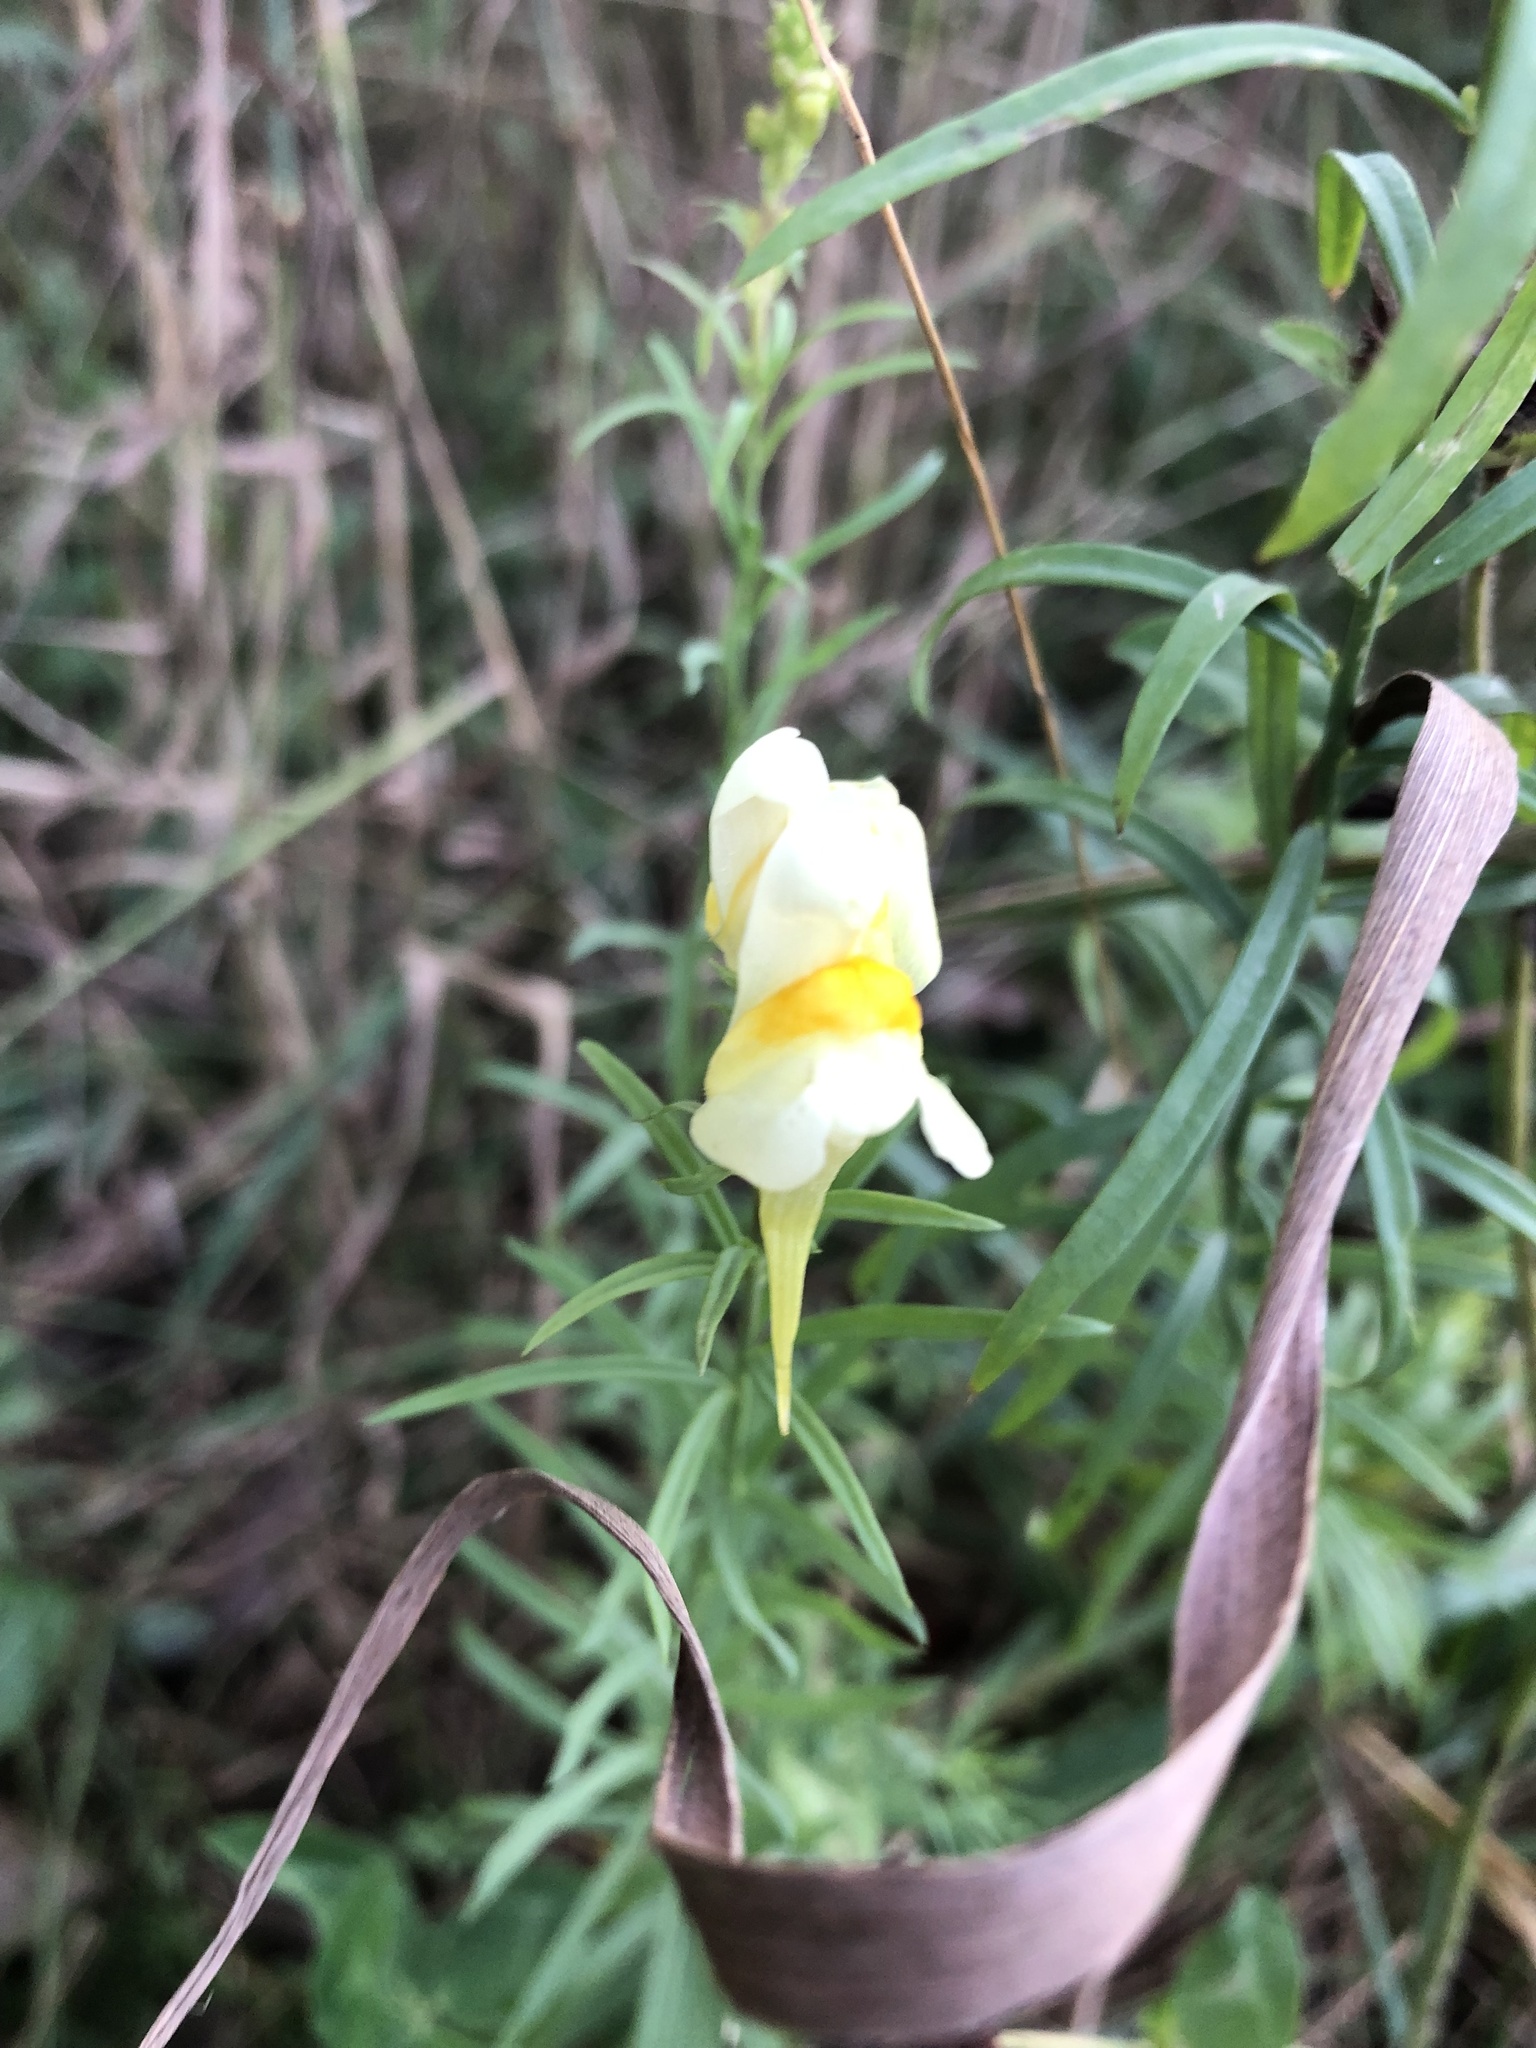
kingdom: Plantae
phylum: Tracheophyta
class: Magnoliopsida
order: Lamiales
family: Plantaginaceae
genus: Linaria
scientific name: Linaria vulgaris
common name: Butter and eggs
